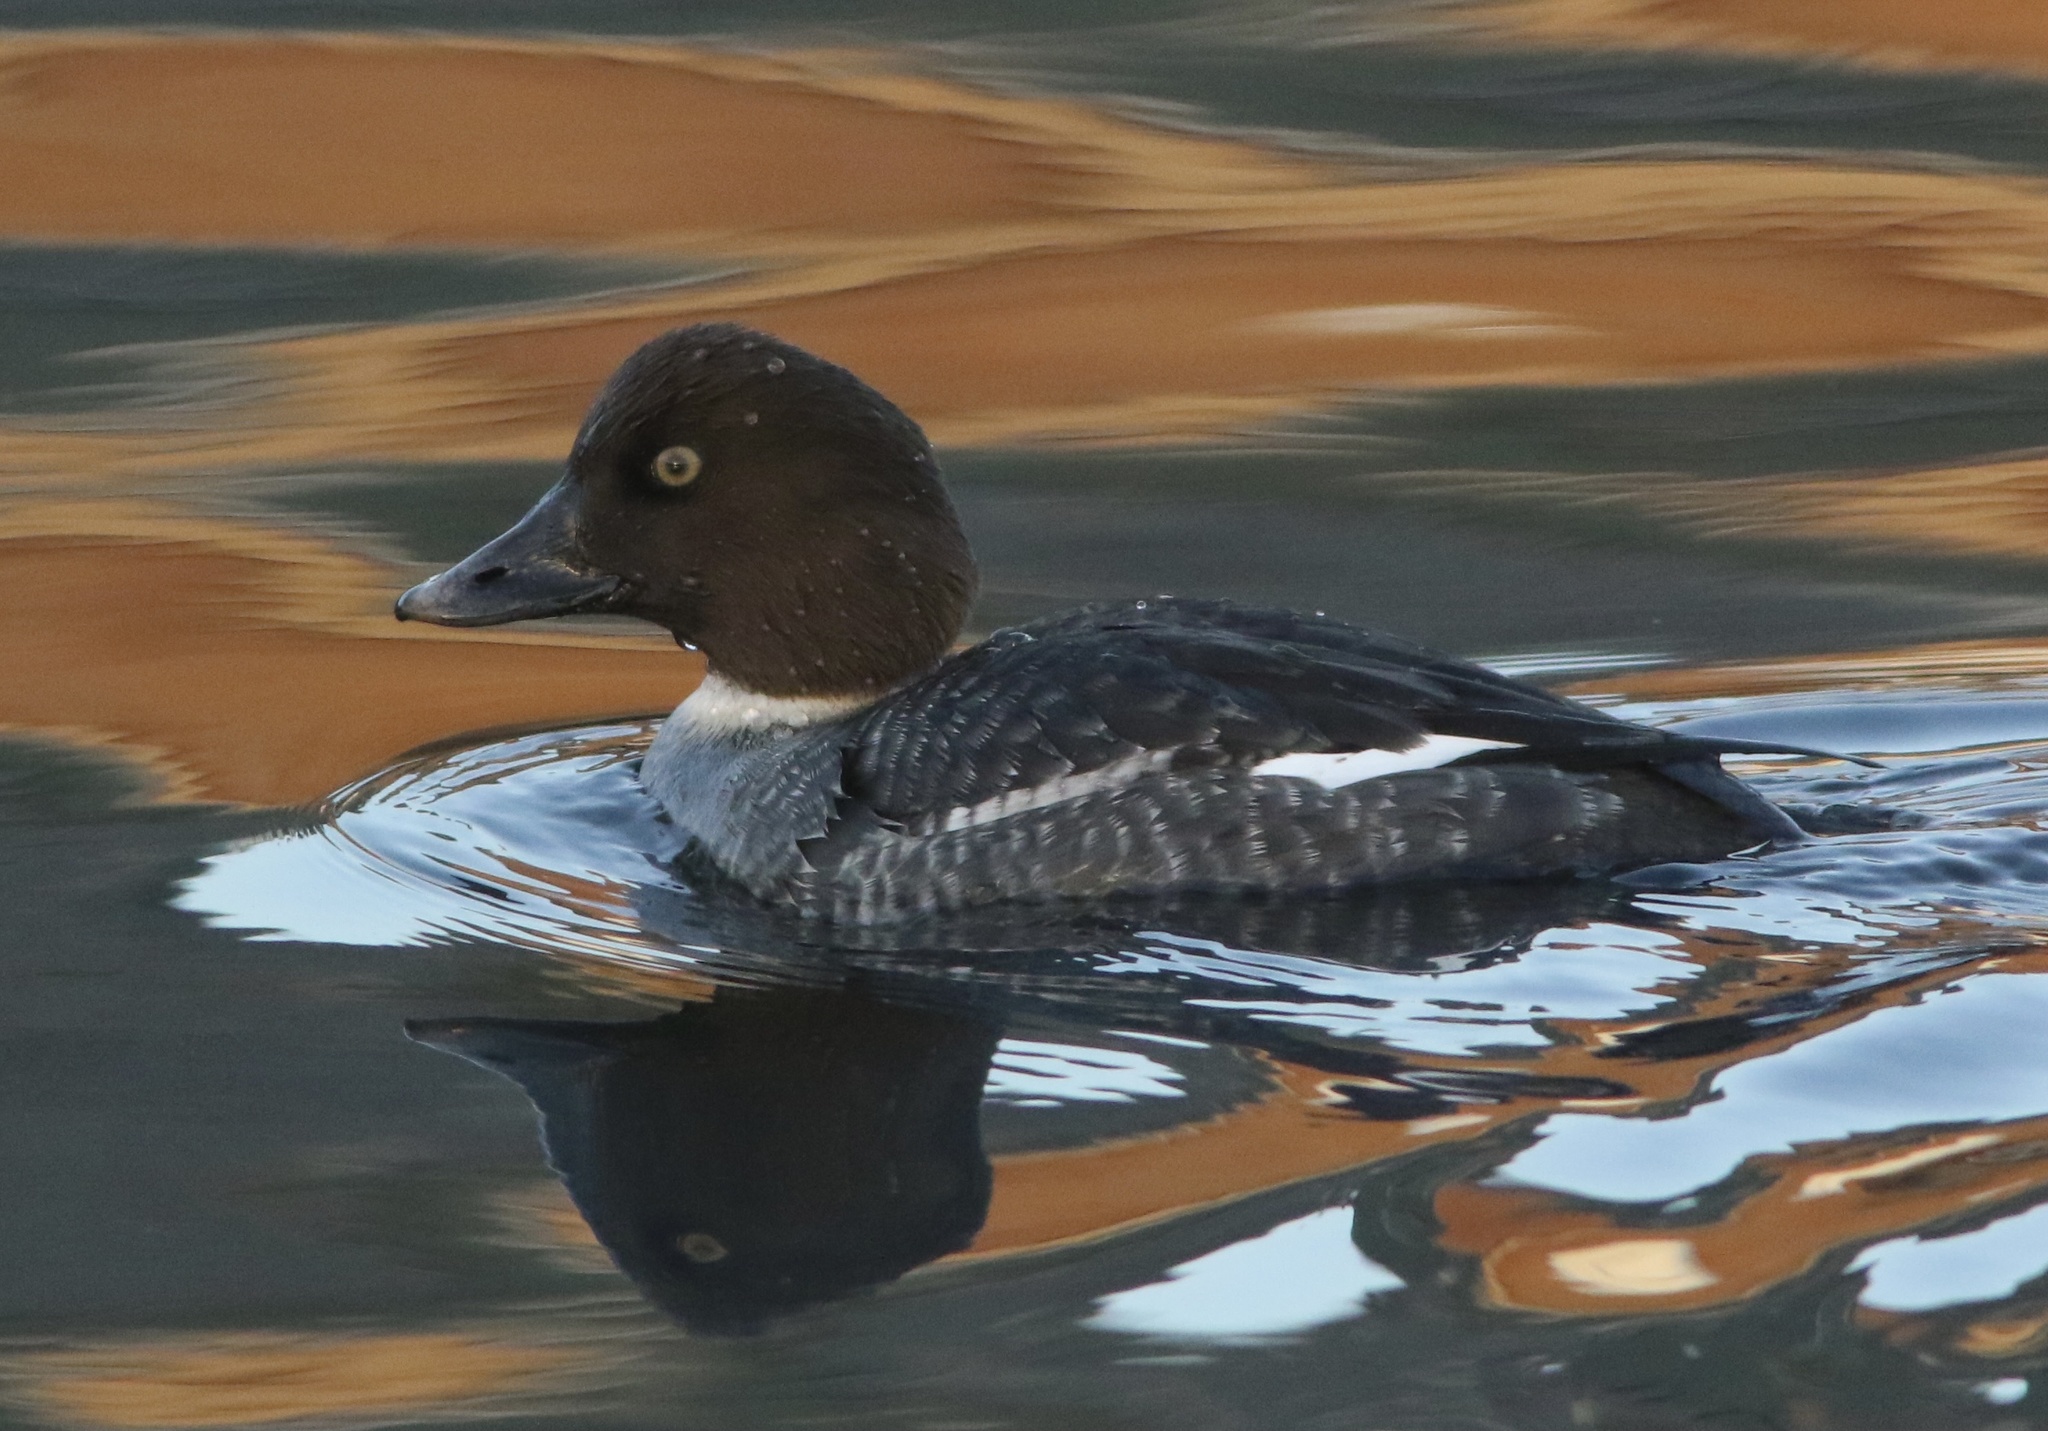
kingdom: Animalia
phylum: Chordata
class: Aves
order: Anseriformes
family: Anatidae
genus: Bucephala
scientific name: Bucephala clangula
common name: Common goldeneye
